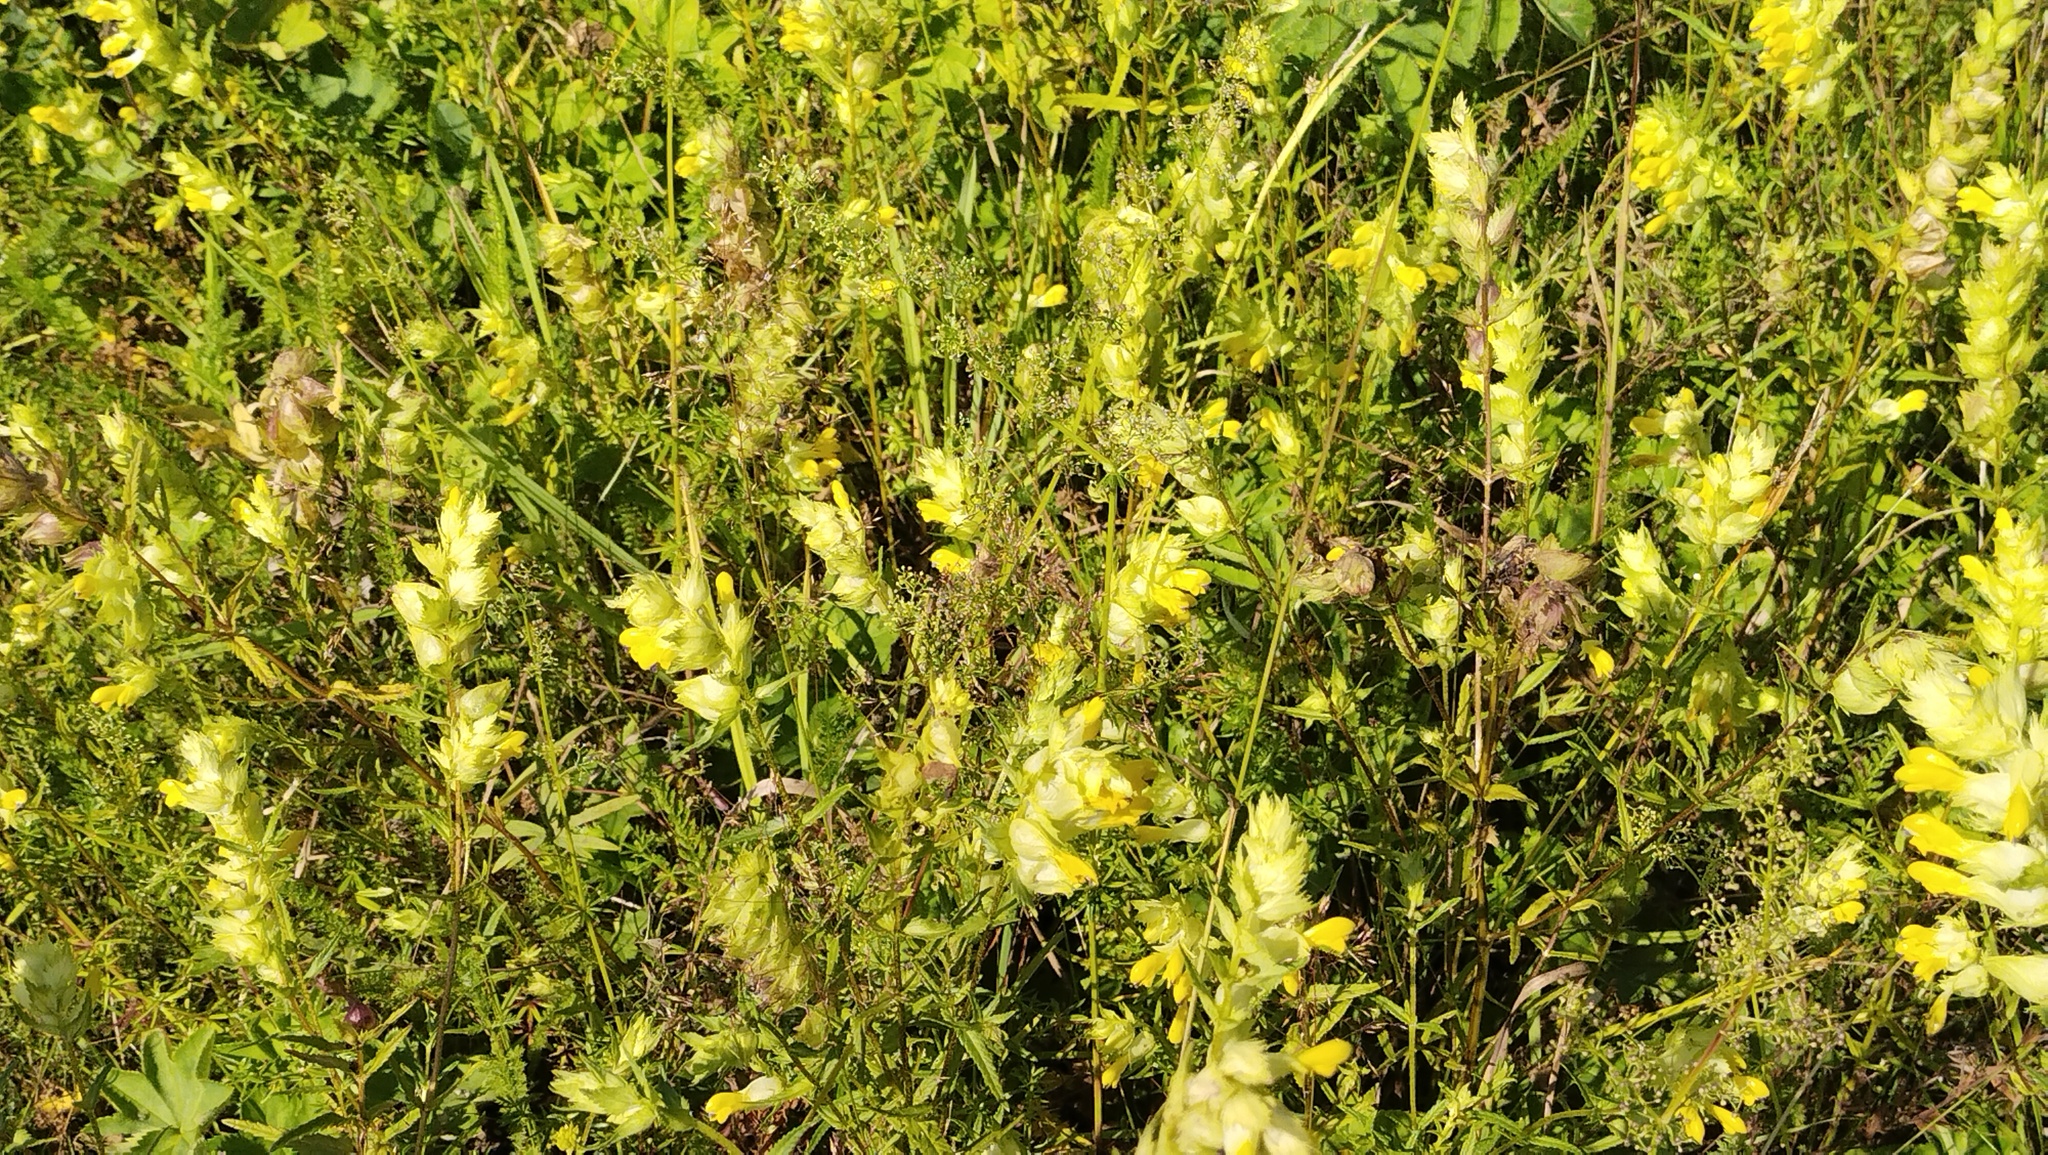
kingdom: Plantae
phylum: Tracheophyta
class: Magnoliopsida
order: Lamiales
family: Orobanchaceae
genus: Rhinanthus
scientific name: Rhinanthus serotinus
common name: Late-flowering yellow rattle
